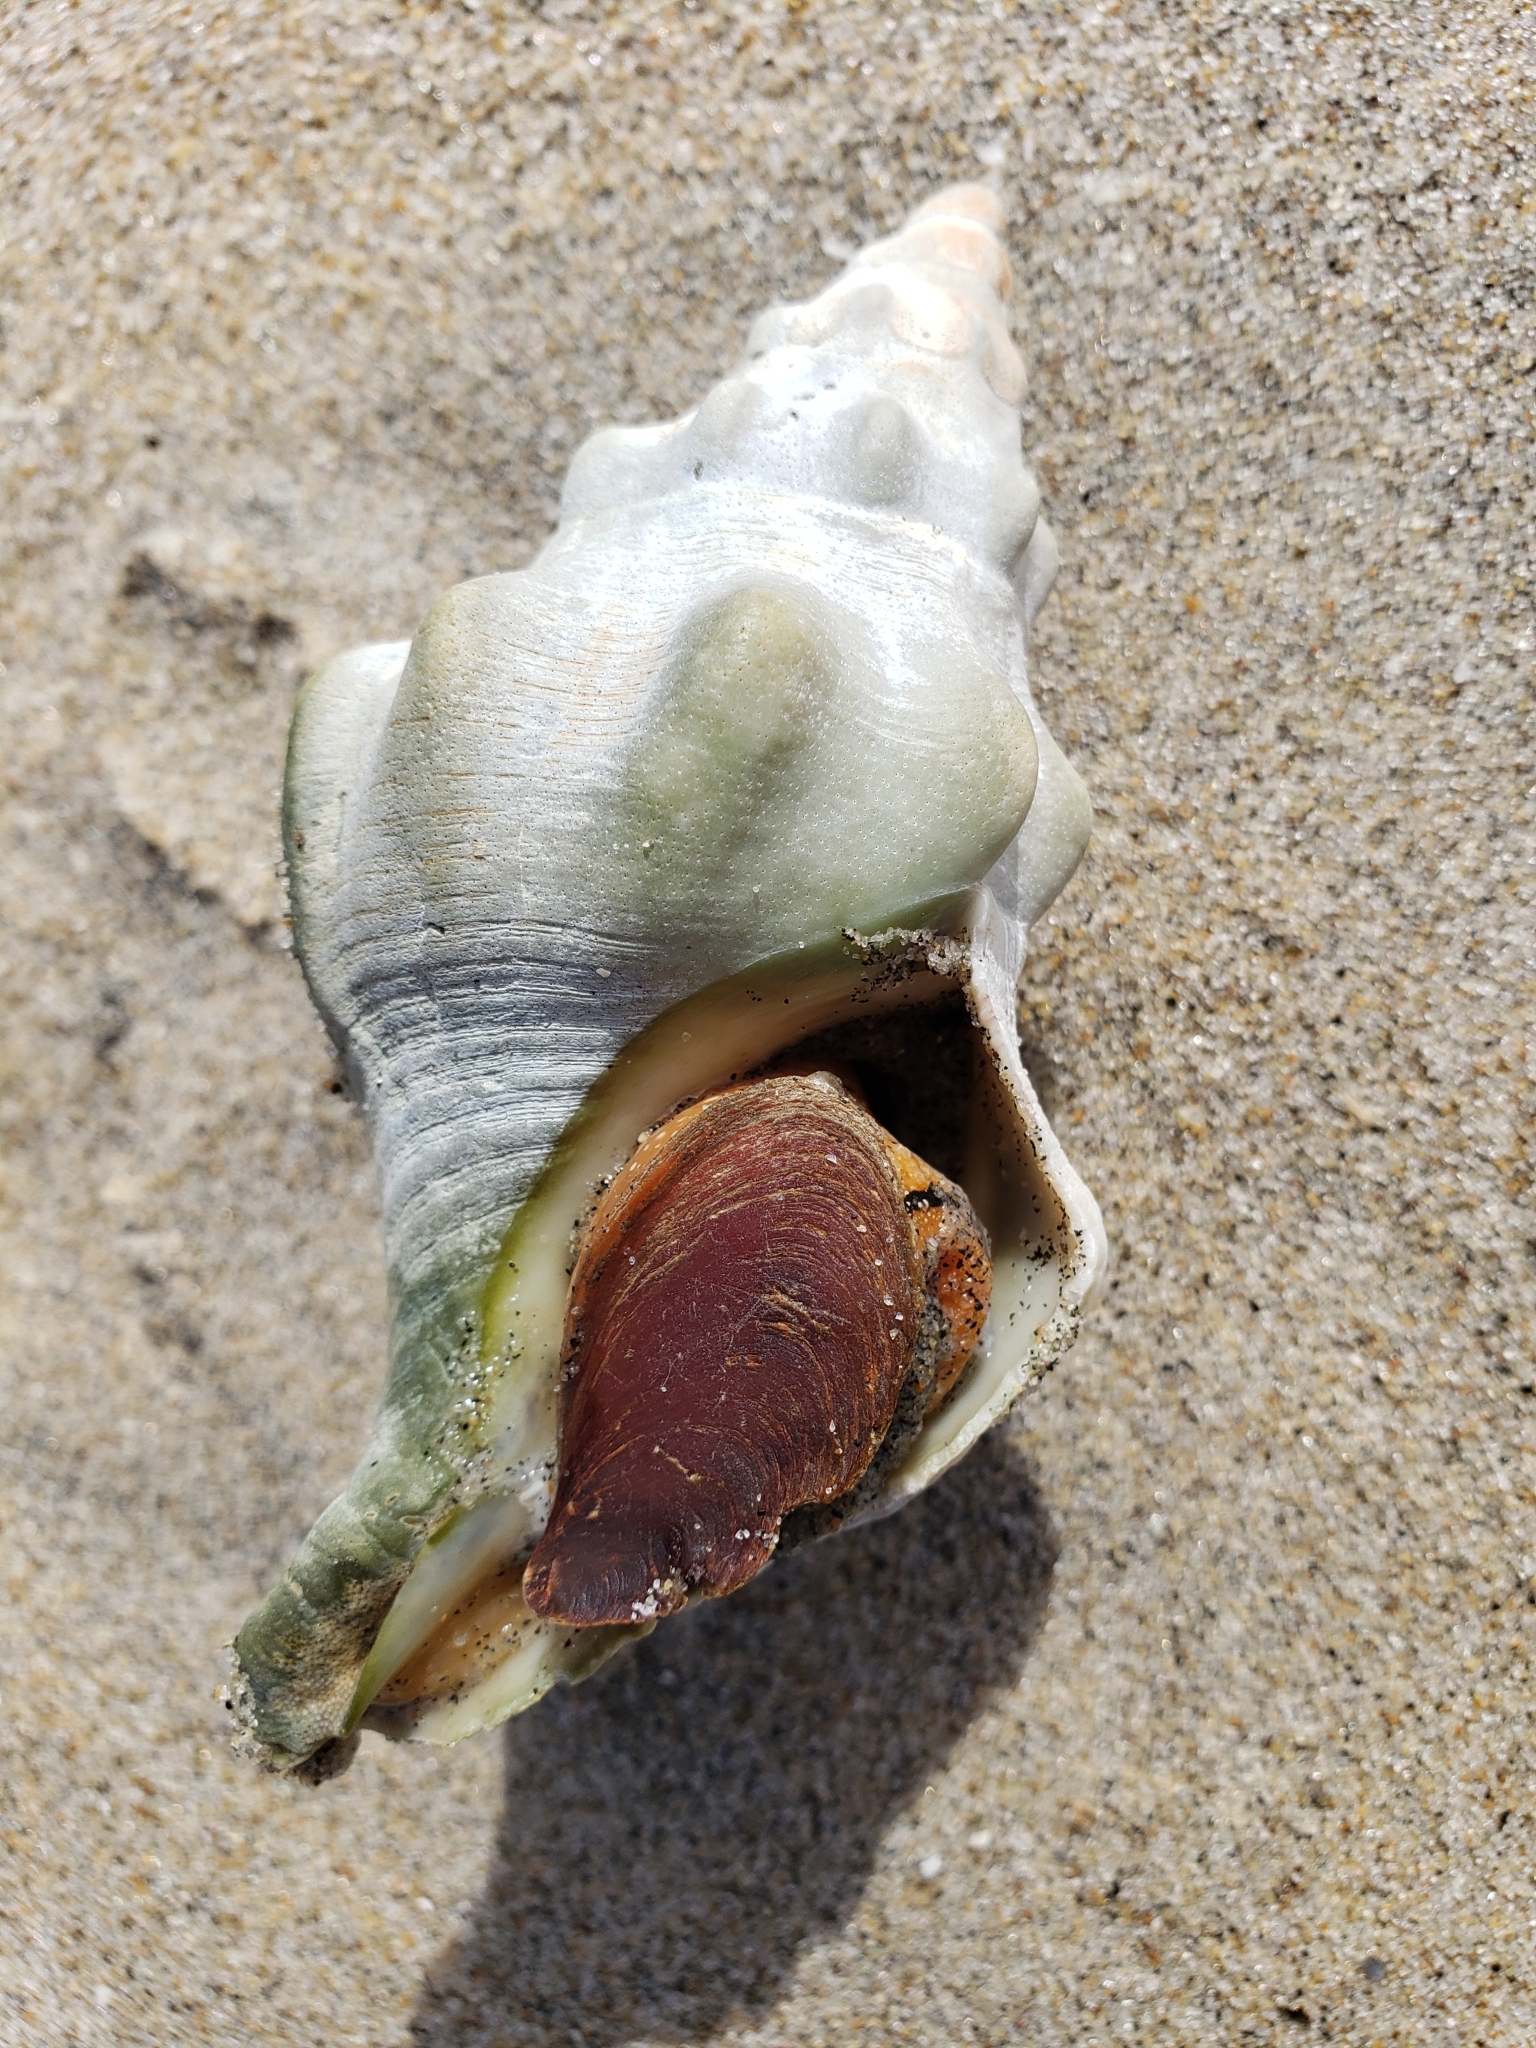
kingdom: Animalia
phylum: Mollusca
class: Gastropoda
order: Neogastropoda
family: Austrosiphonidae
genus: Kelletia
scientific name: Kelletia kelletii
